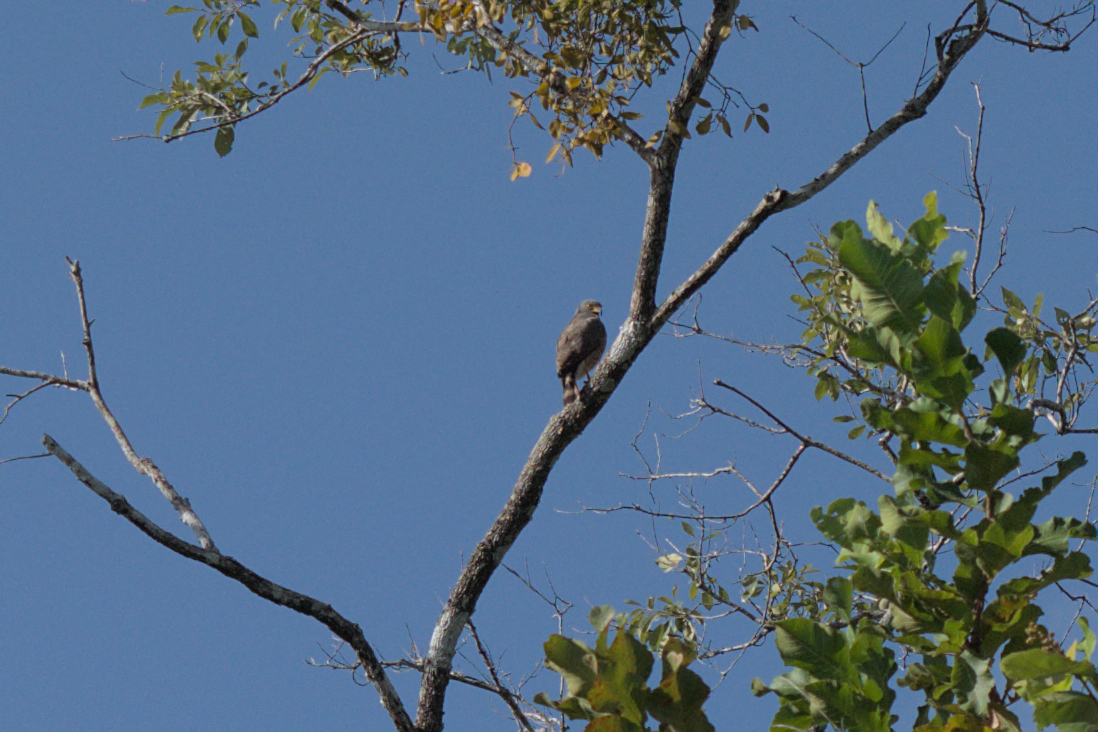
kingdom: Animalia
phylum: Chordata
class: Aves
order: Accipitriformes
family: Accipitridae
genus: Rupornis
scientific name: Rupornis magnirostris
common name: Roadside hawk
